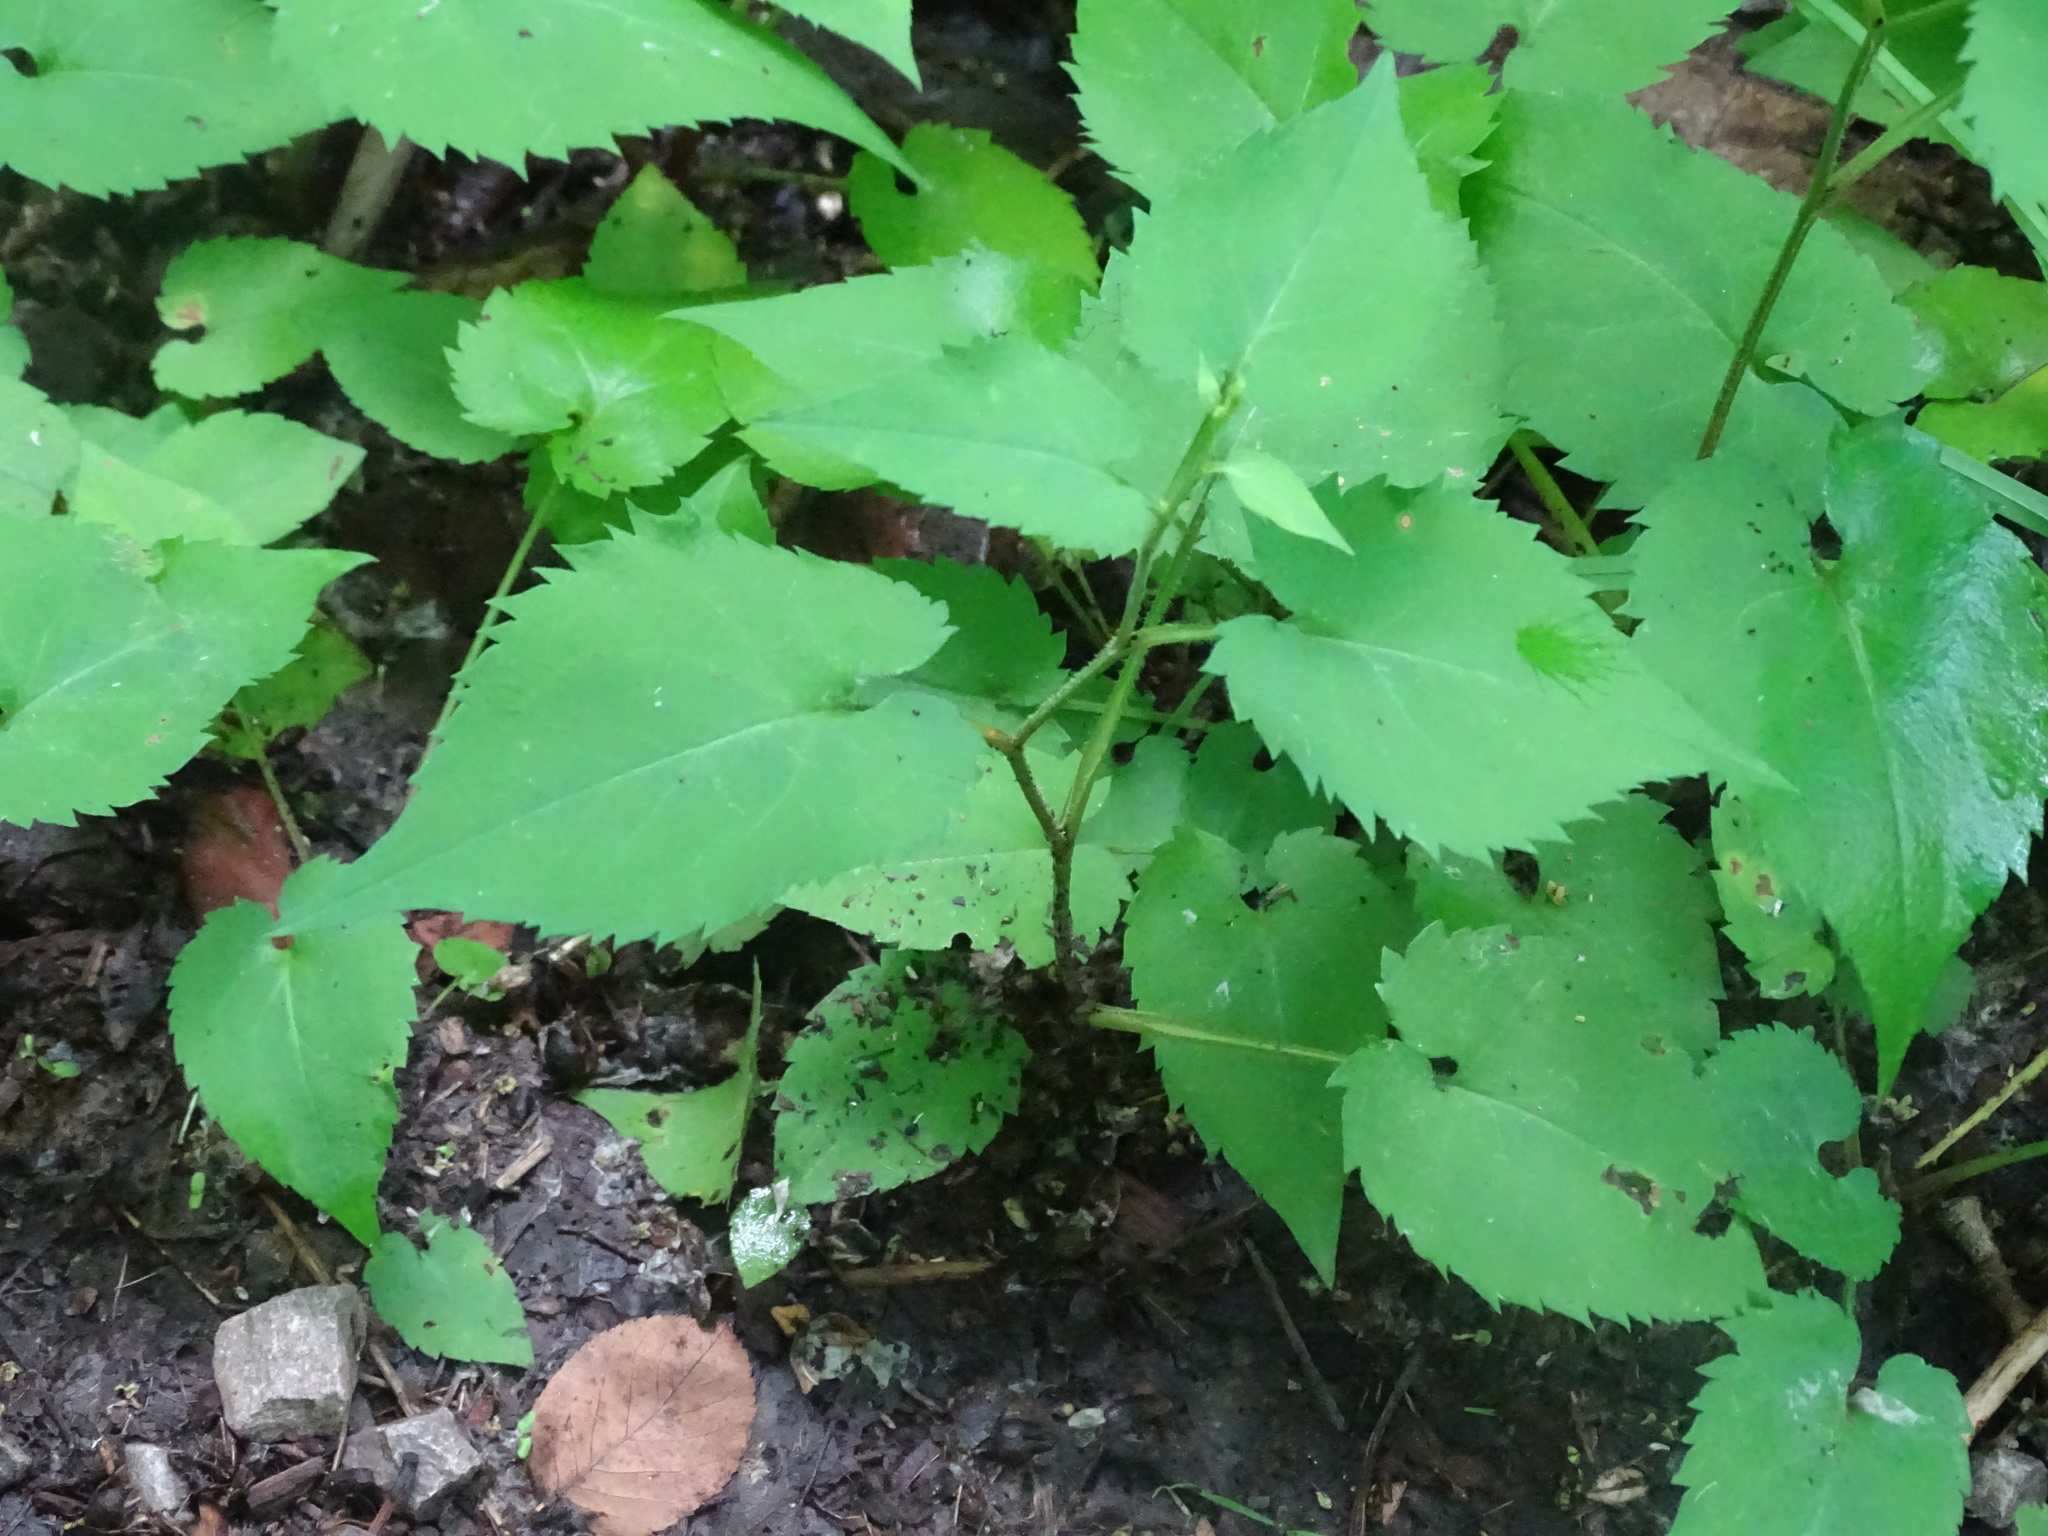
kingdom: Plantae
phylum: Tracheophyta
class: Magnoliopsida
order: Asterales
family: Asteraceae
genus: Symphyotrichum
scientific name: Symphyotrichum cordifolium
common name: Beeweed
